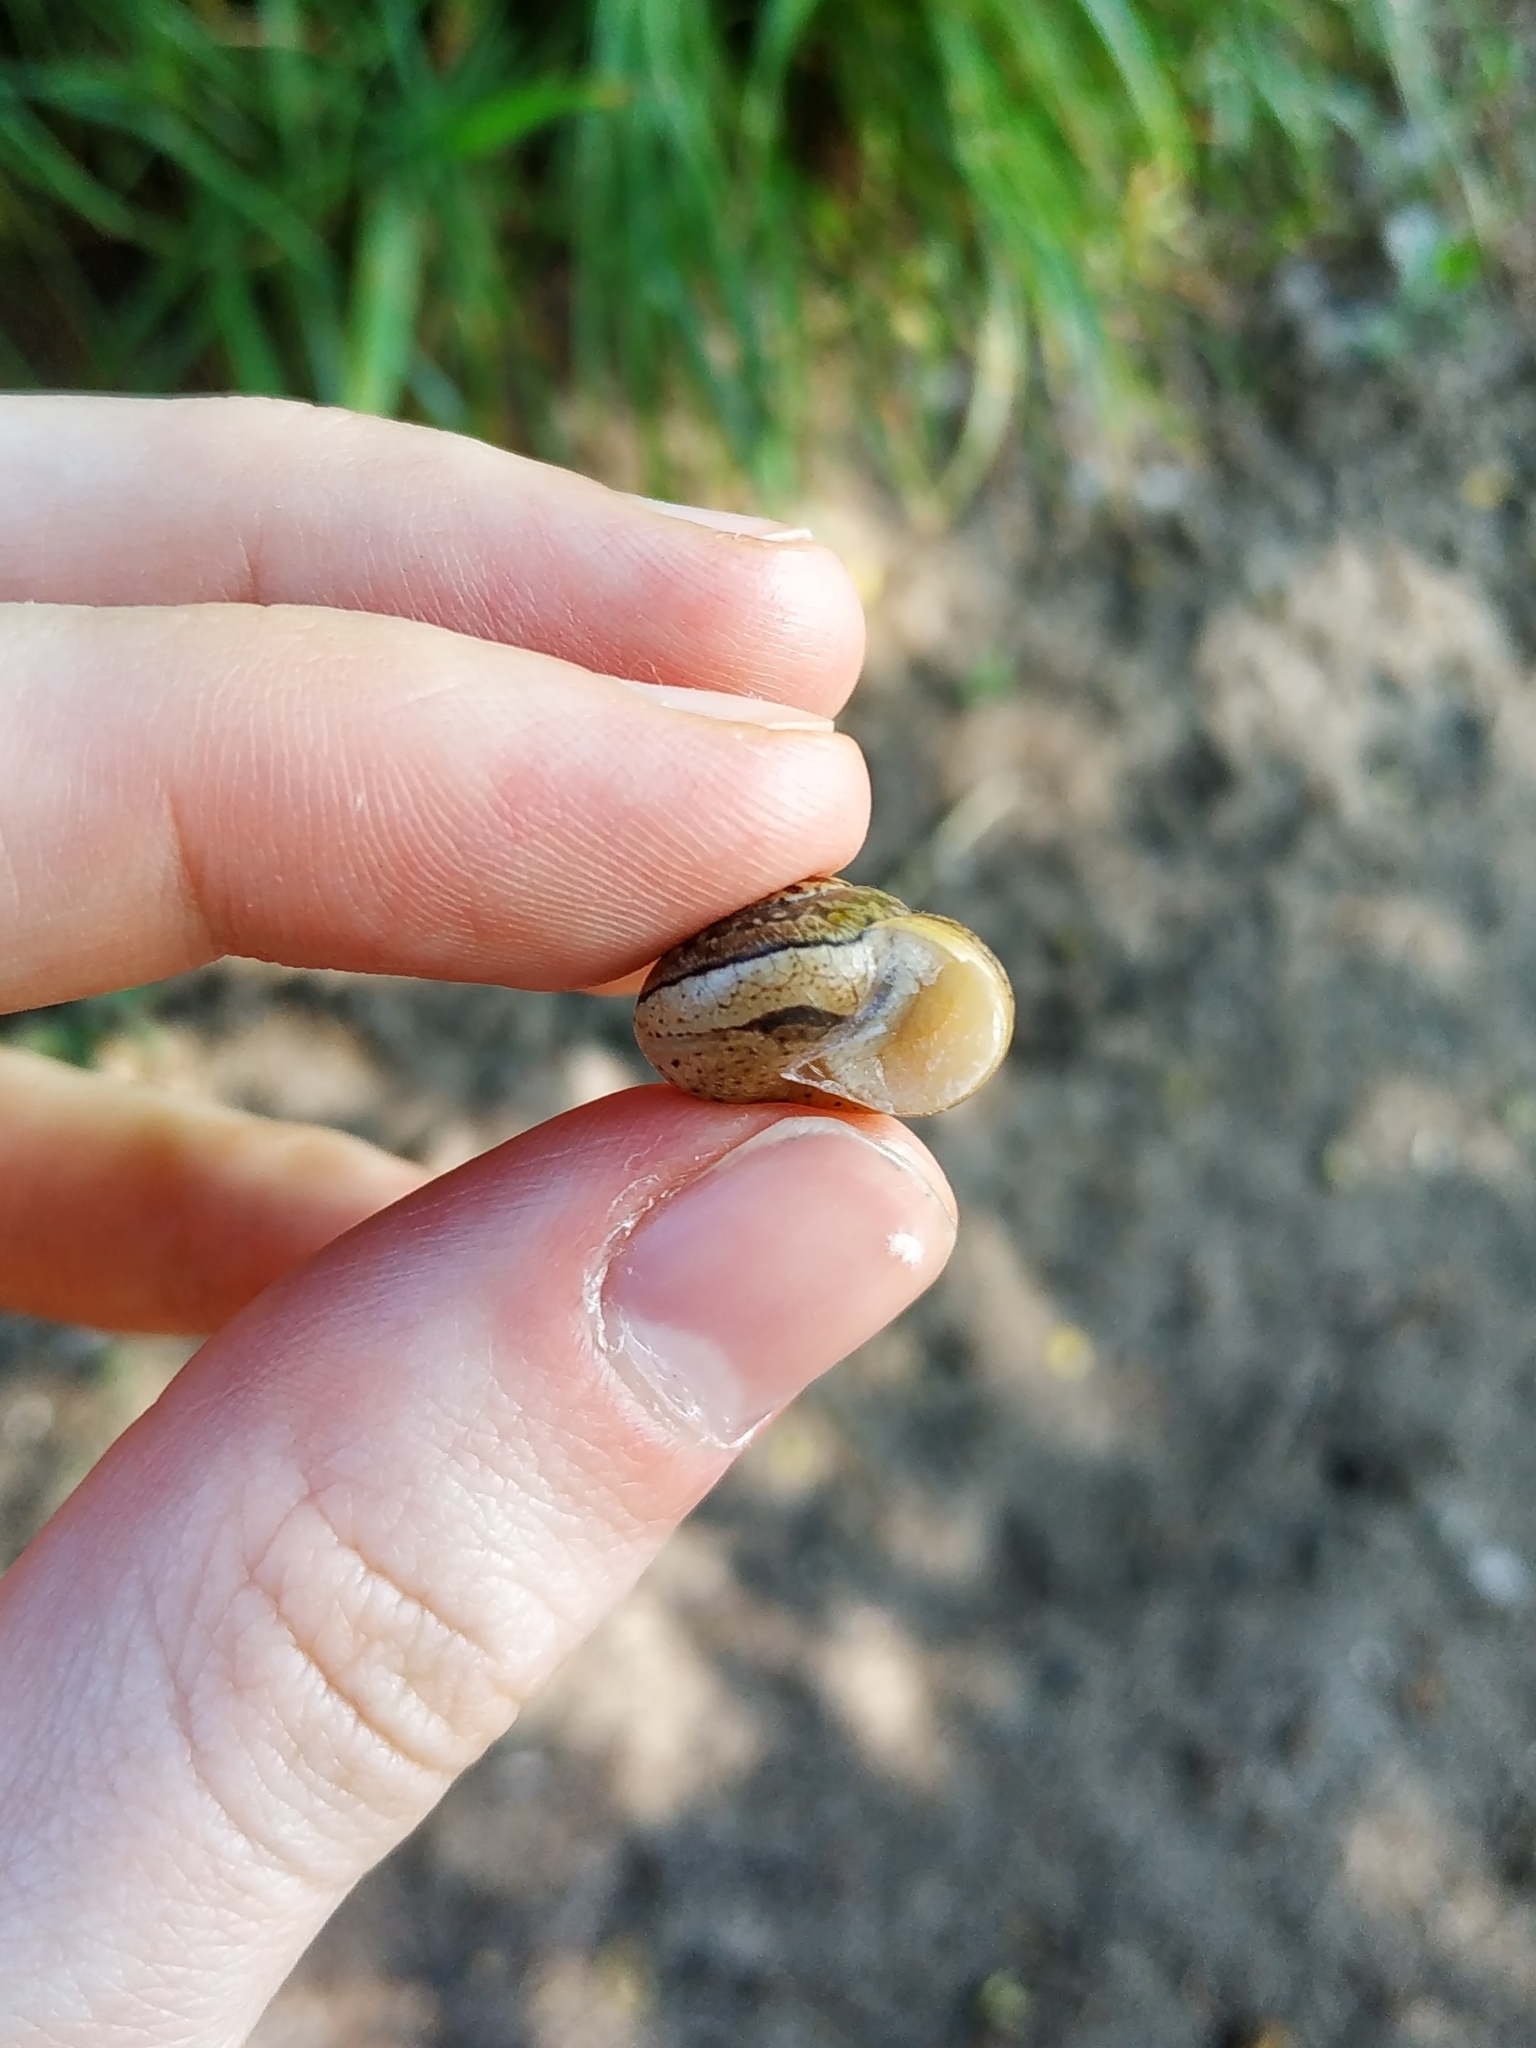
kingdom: Animalia
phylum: Mollusca
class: Gastropoda
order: Stylommatophora
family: Hygromiidae
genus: Euomphalia
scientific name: Euomphalia strigella
